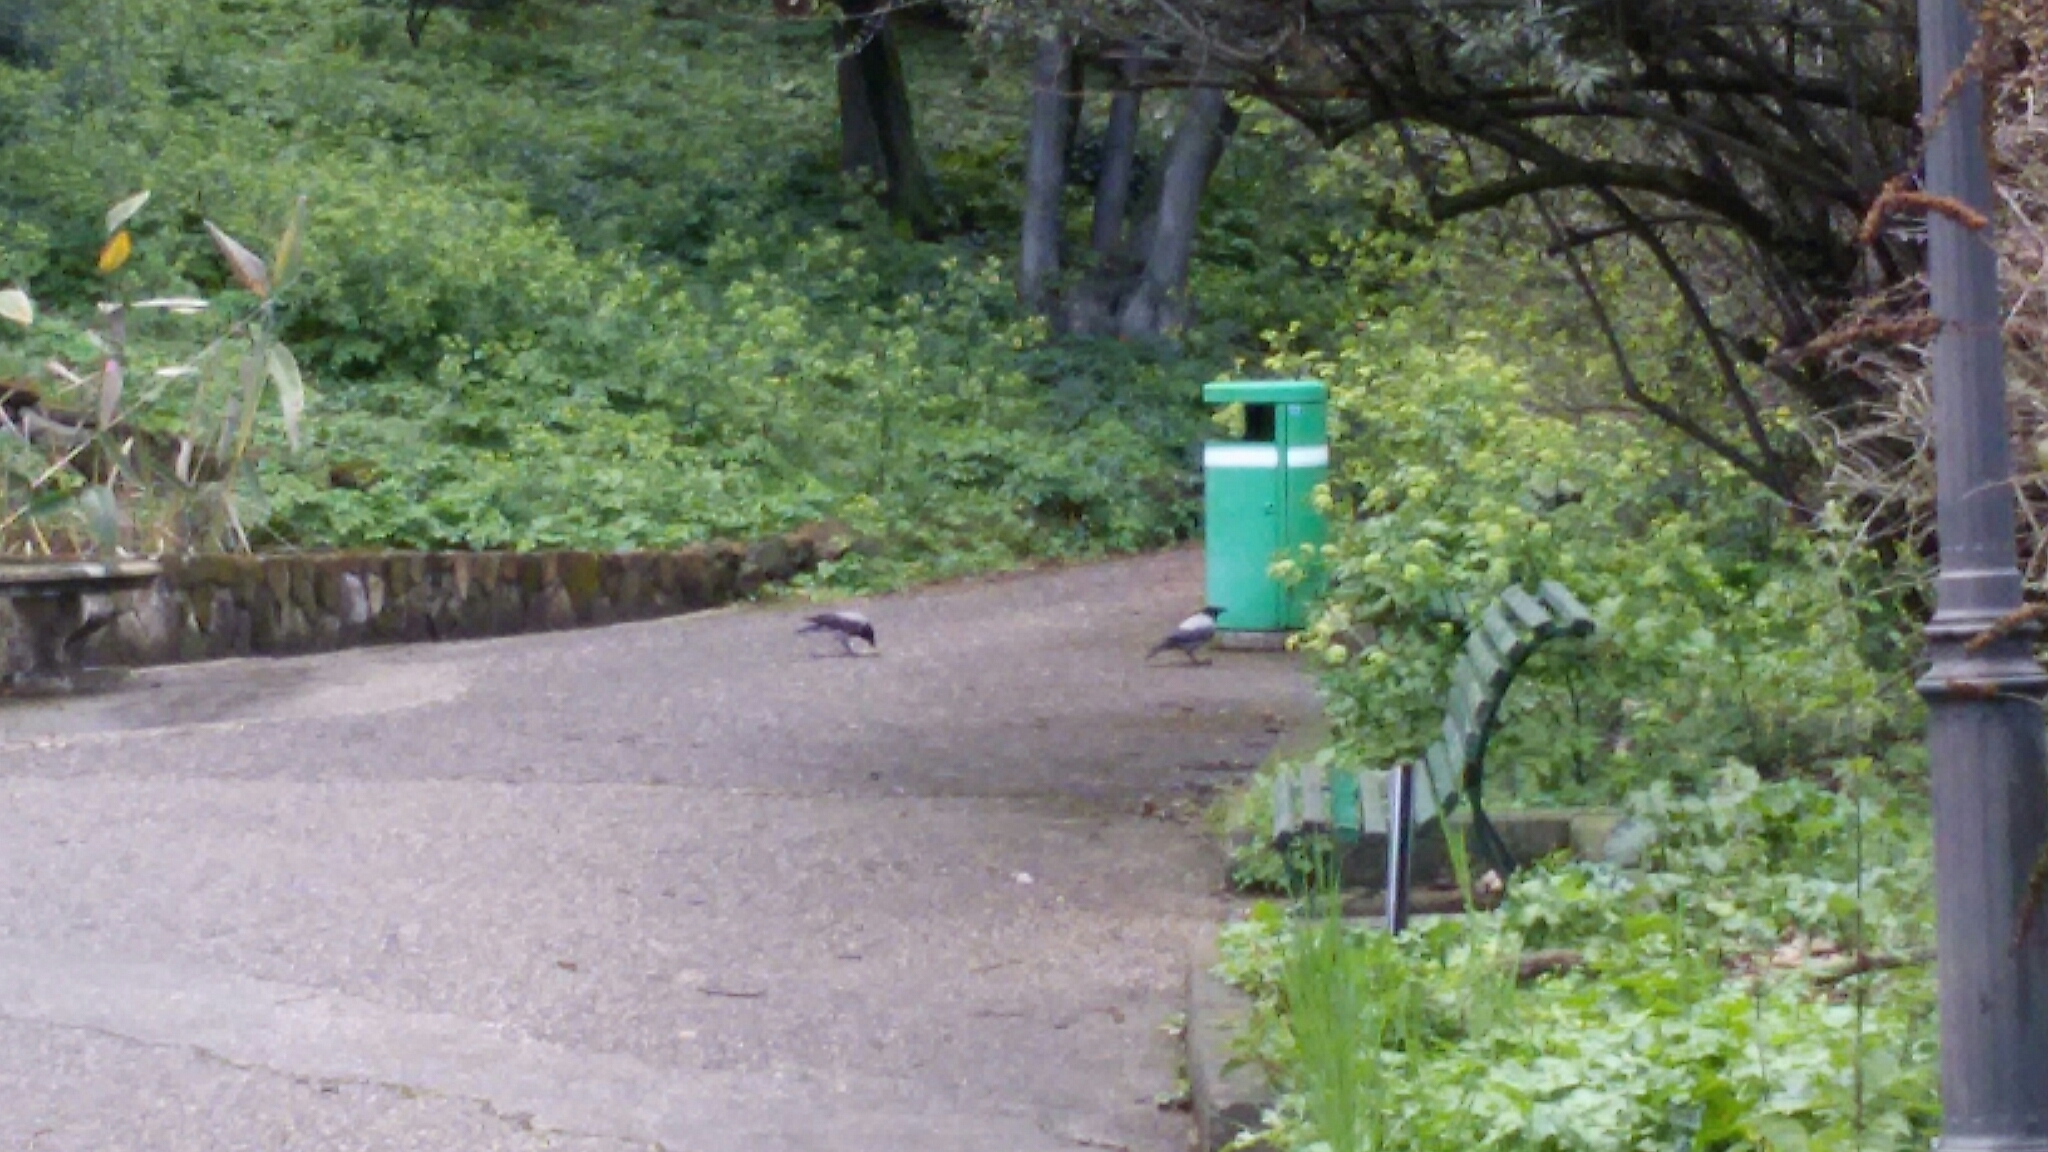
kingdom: Animalia
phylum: Chordata
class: Aves
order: Passeriformes
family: Corvidae
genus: Corvus
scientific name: Corvus cornix
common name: Hooded crow
